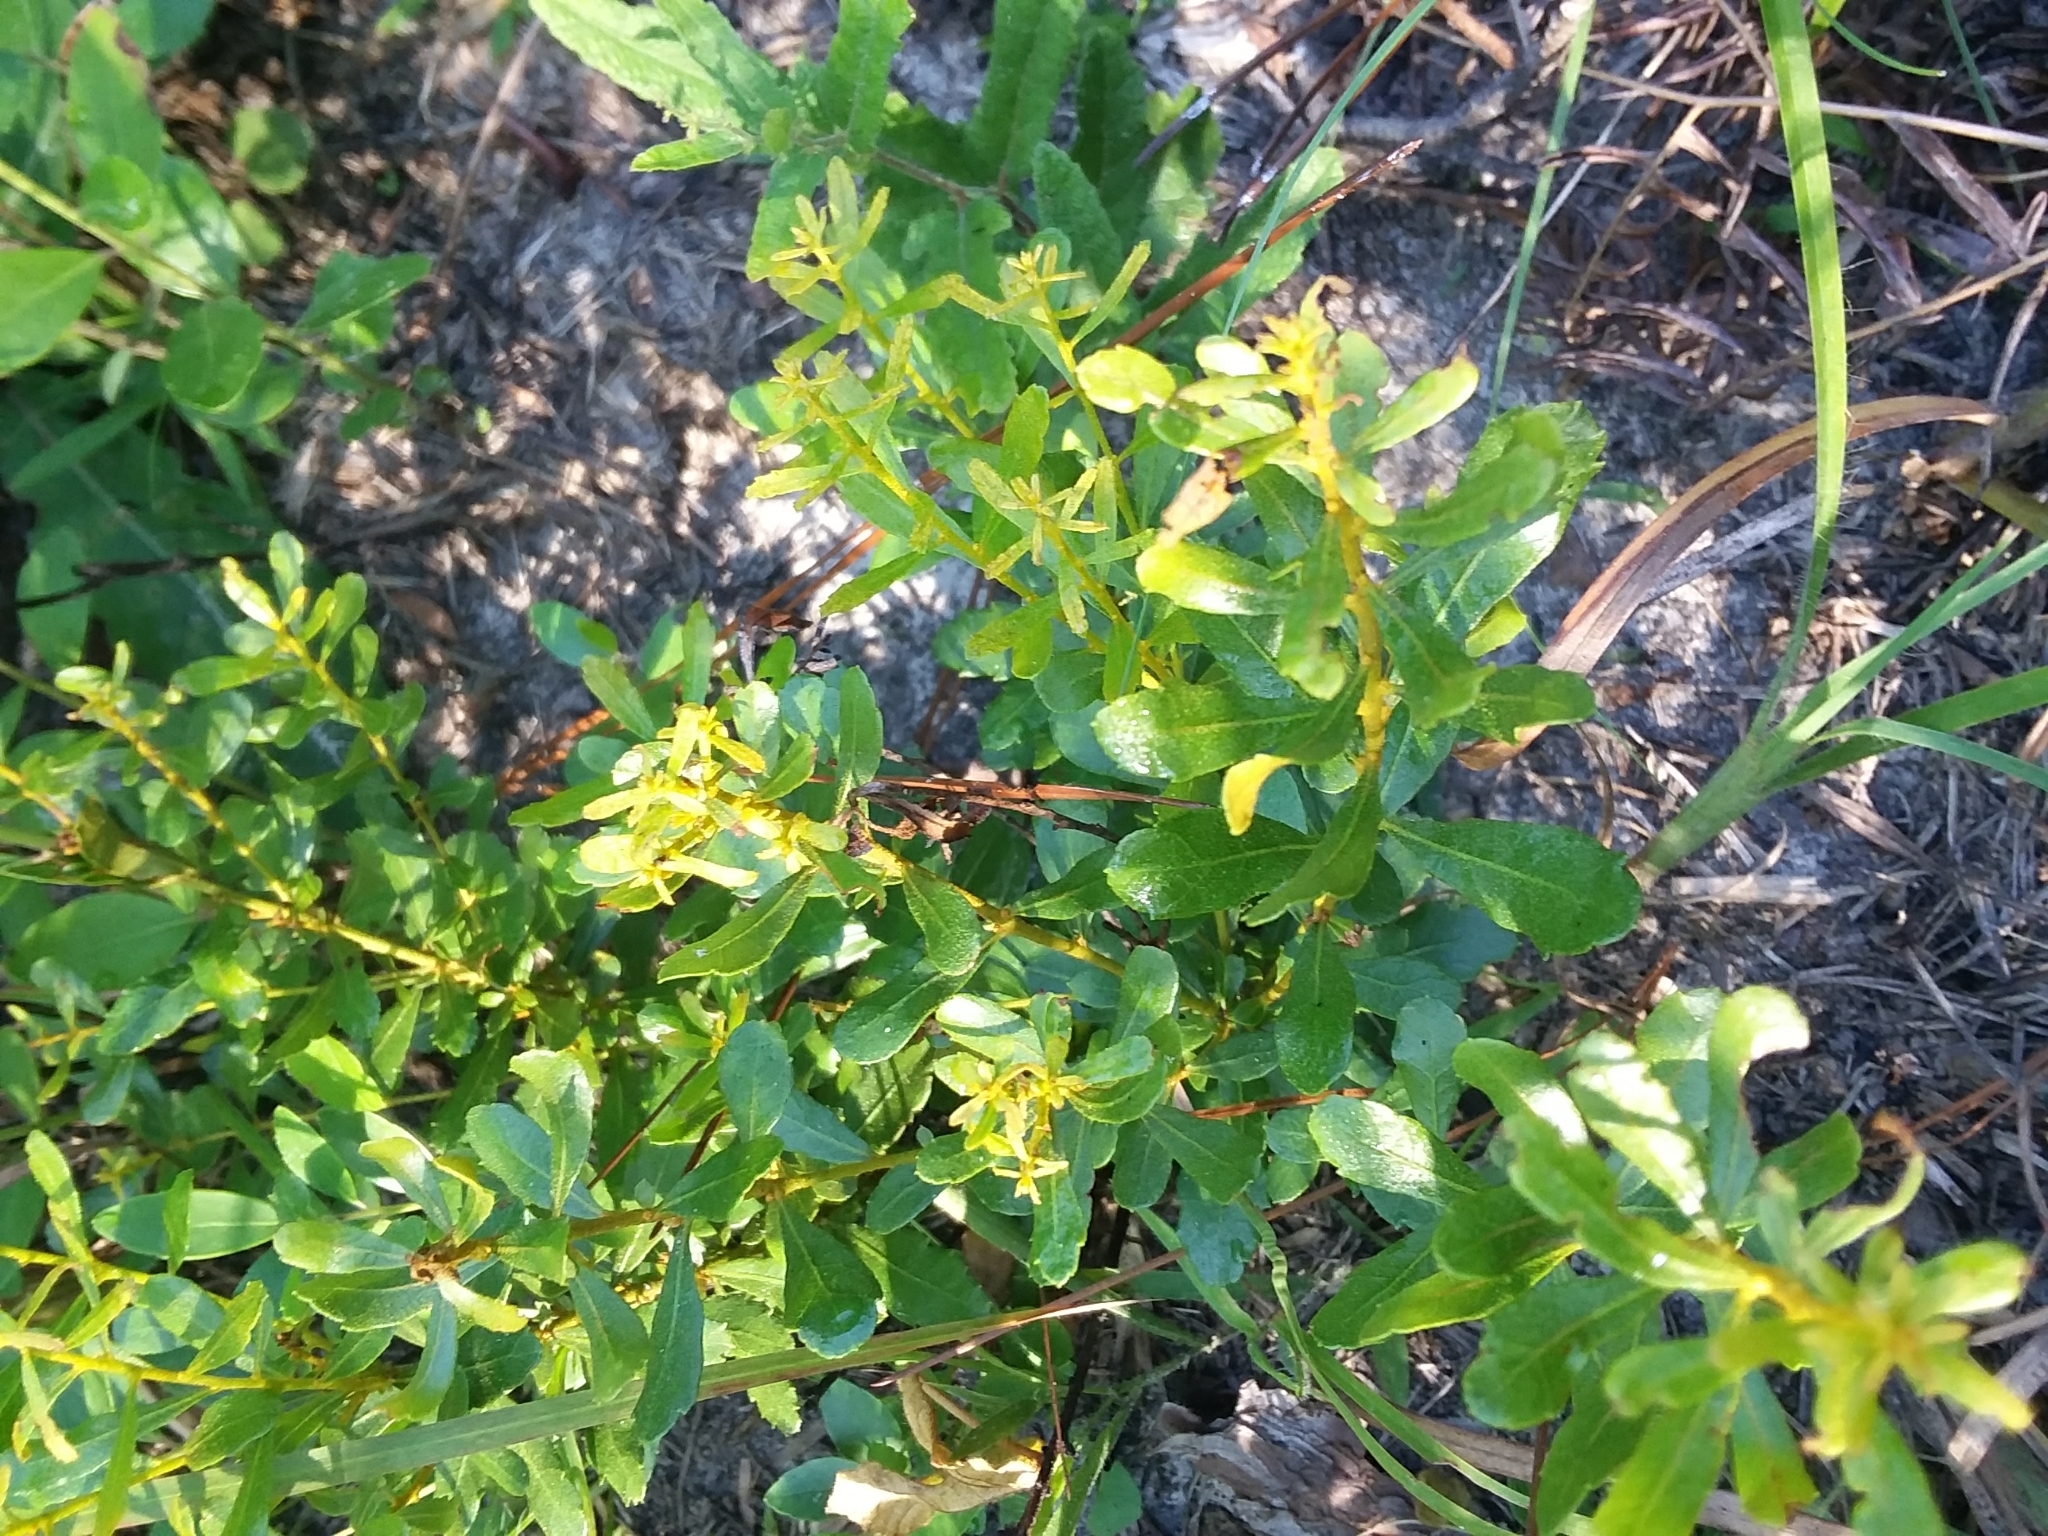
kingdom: Plantae
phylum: Tracheophyta
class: Magnoliopsida
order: Fagales
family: Myricaceae
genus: Morella
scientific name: Morella cerifera
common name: Wax myrtle
